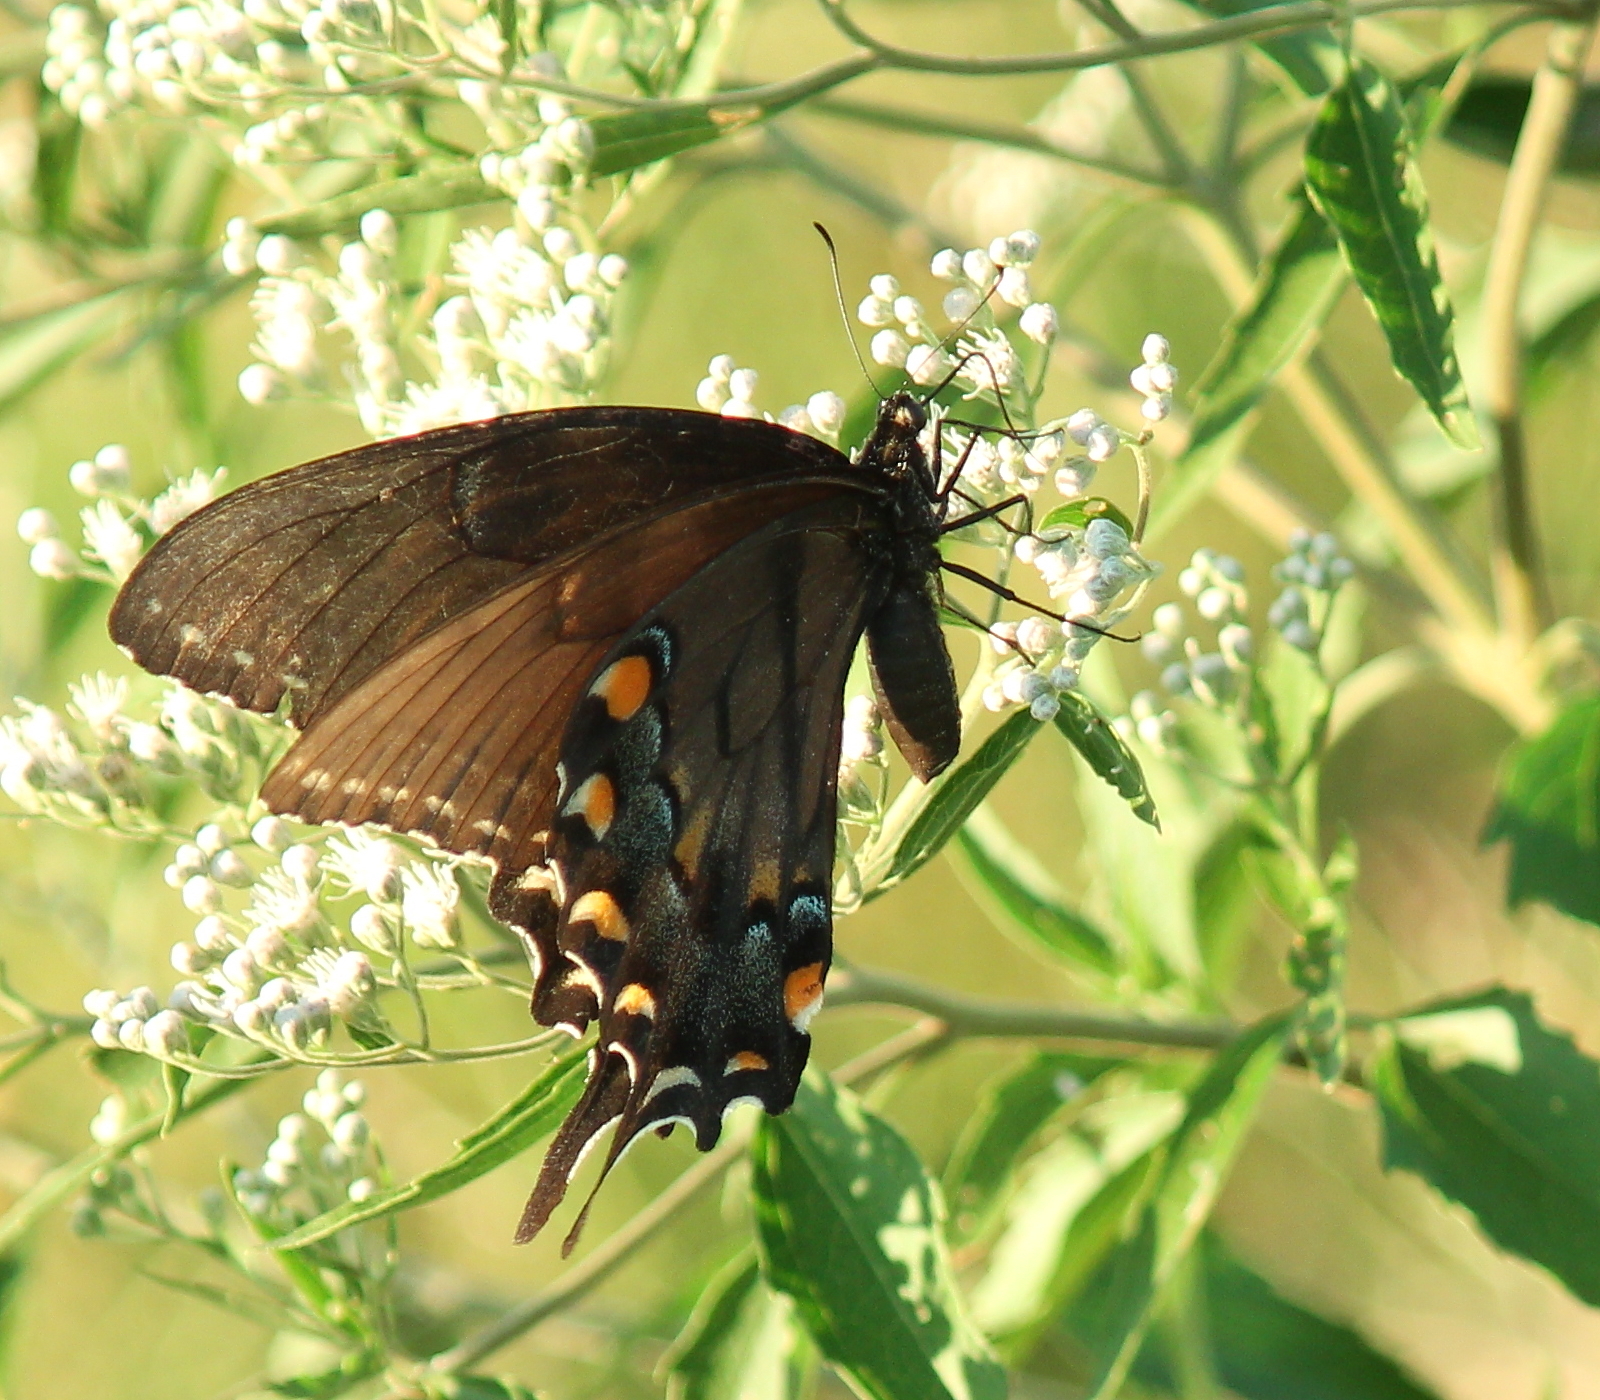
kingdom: Animalia
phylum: Arthropoda
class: Insecta
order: Lepidoptera
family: Papilionidae
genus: Papilio
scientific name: Papilio glaucus
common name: Tiger swallowtail
